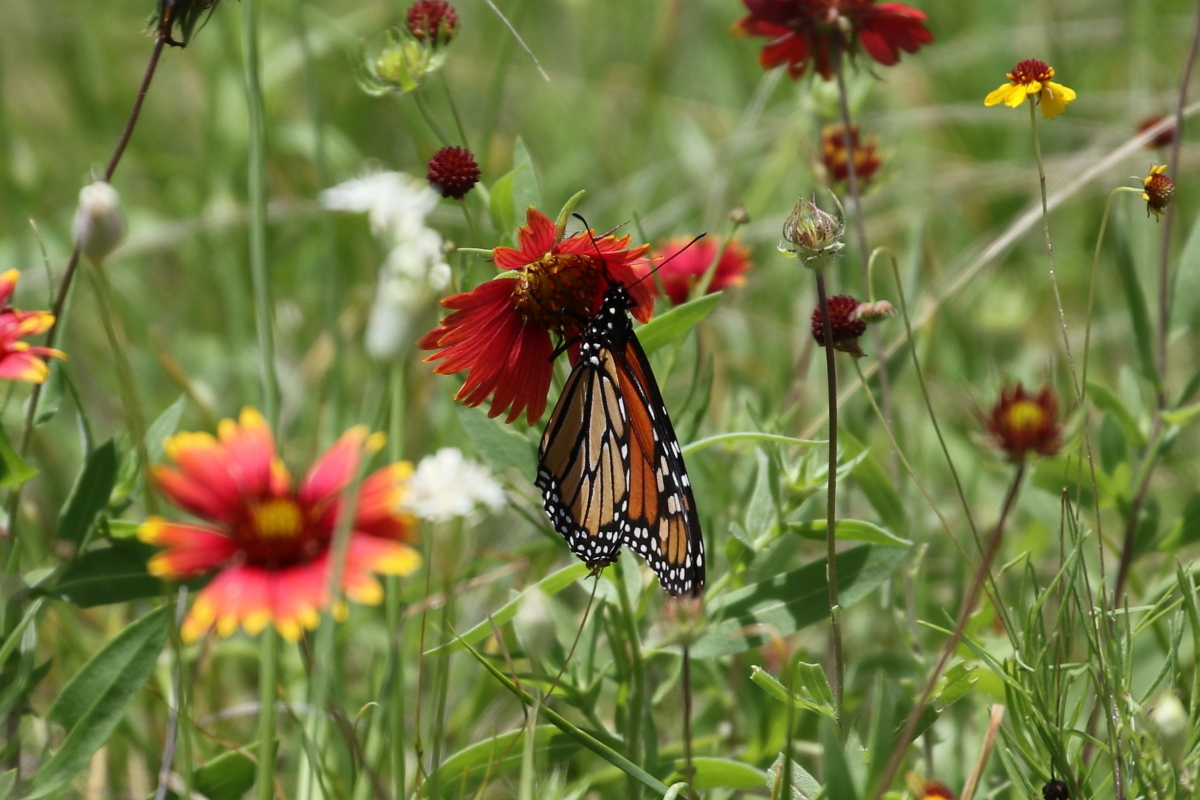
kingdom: Animalia
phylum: Arthropoda
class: Insecta
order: Lepidoptera
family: Nymphalidae
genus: Danaus
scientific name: Danaus plexippus
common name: Monarch
